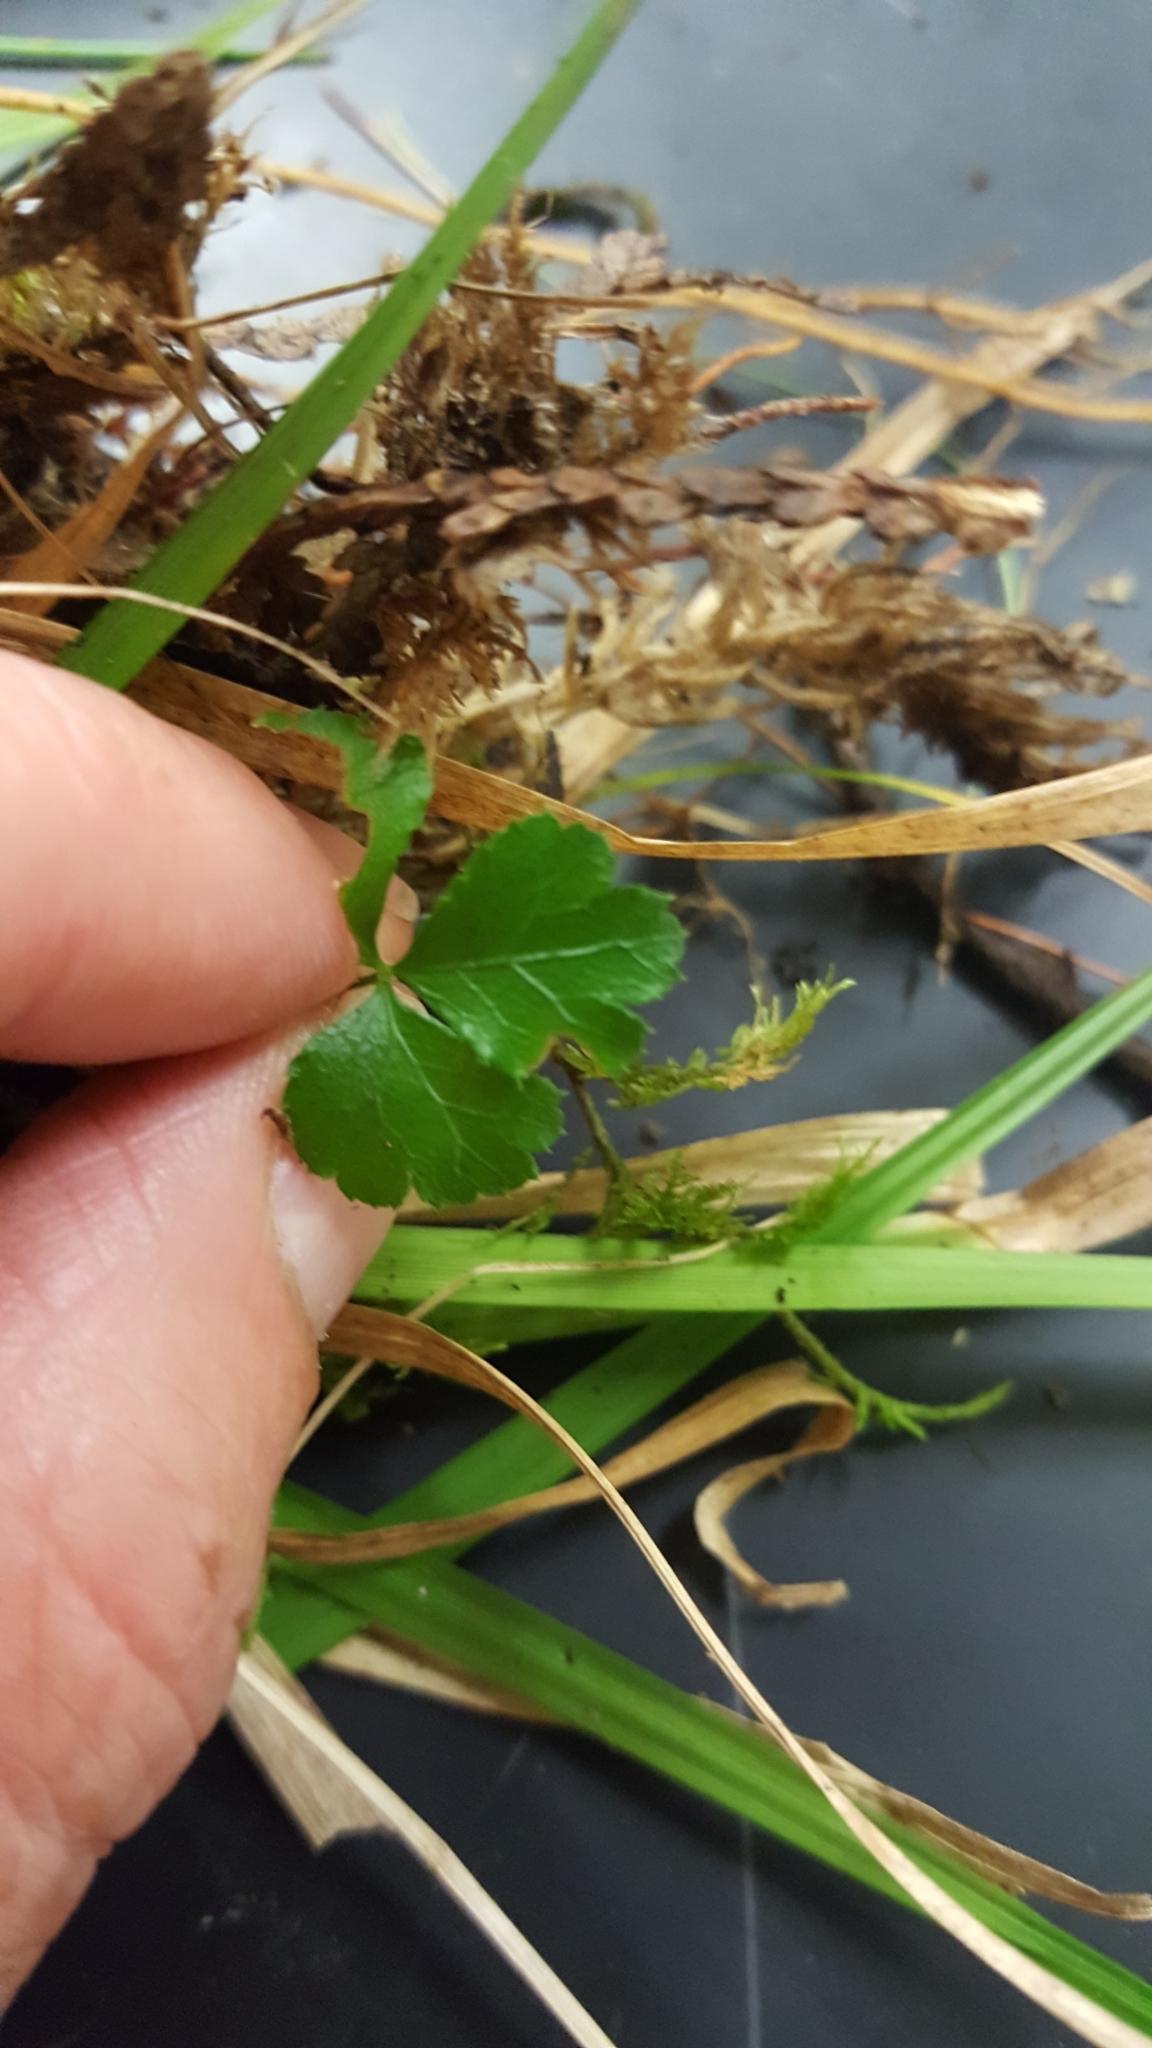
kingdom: Plantae
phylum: Tracheophyta
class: Magnoliopsida
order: Ranunculales
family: Ranunculaceae
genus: Coptis
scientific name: Coptis trifolia
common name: Canker-root
